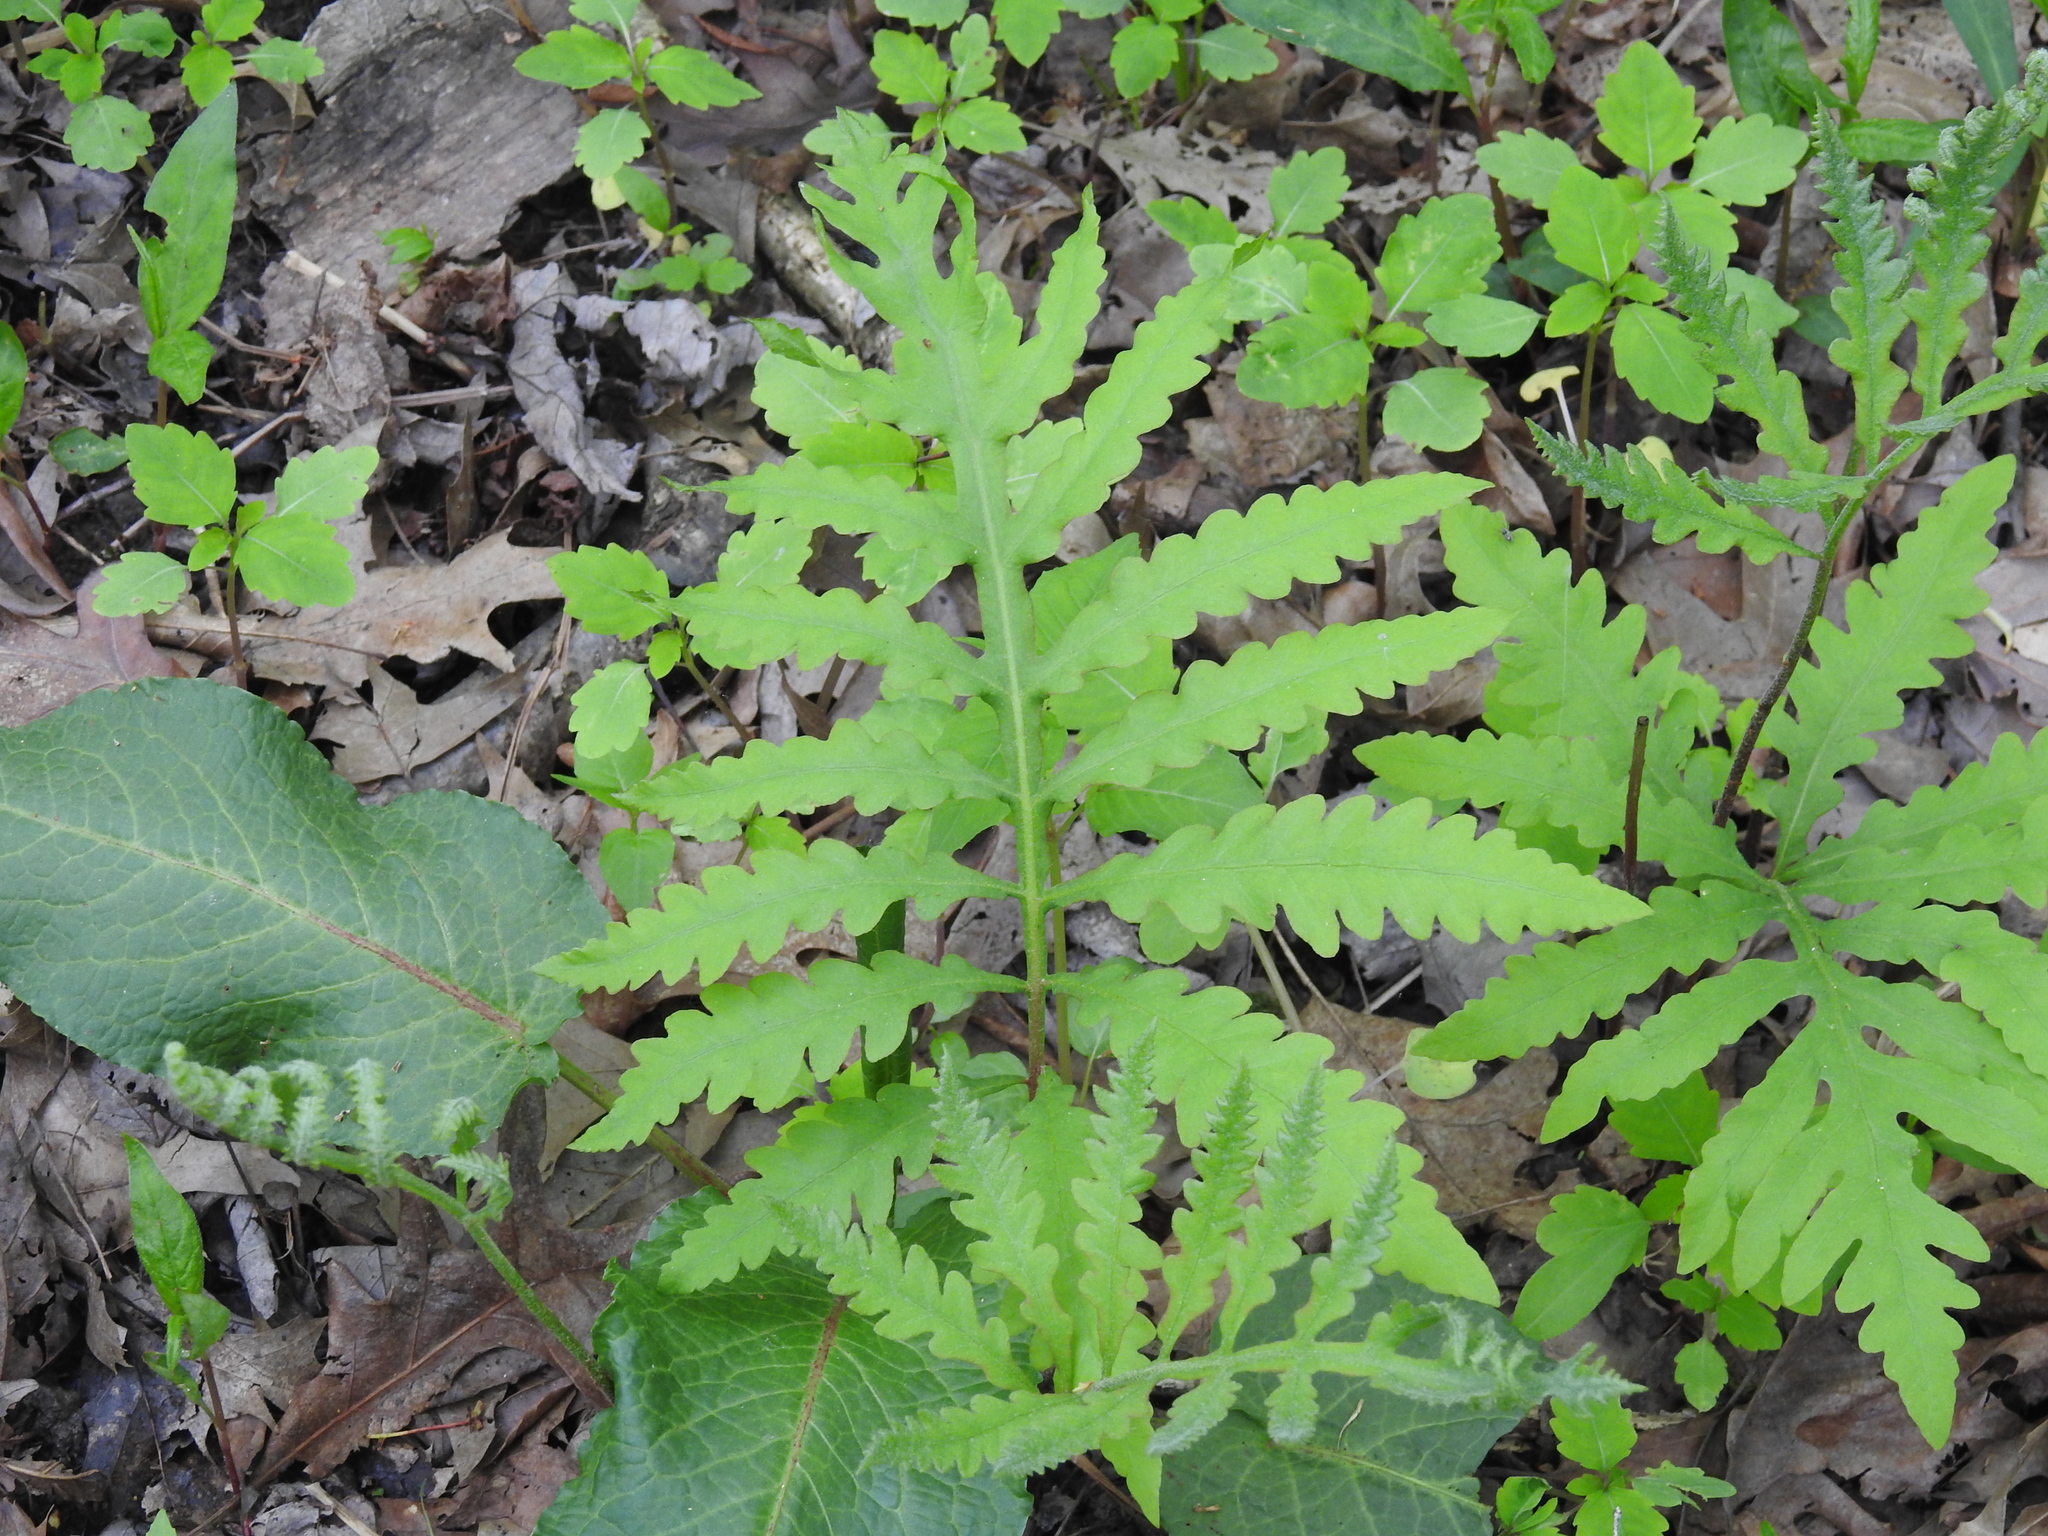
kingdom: Plantae
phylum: Tracheophyta
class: Polypodiopsida
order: Polypodiales
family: Onocleaceae
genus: Onoclea
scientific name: Onoclea sensibilis
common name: Sensitive fern
